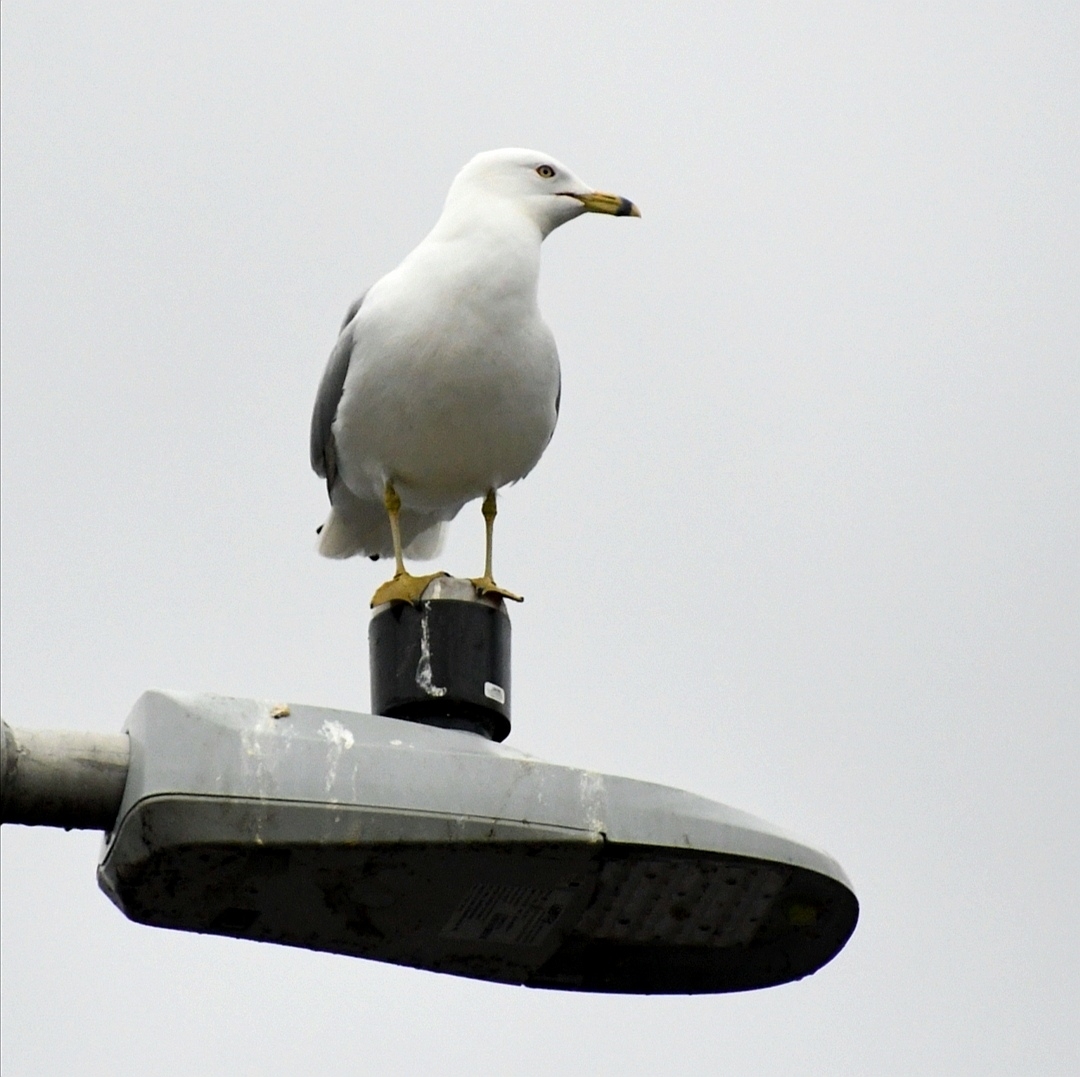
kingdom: Animalia
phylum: Chordata
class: Aves
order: Charadriiformes
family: Laridae
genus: Larus
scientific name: Larus delawarensis
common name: Ring-billed gull
